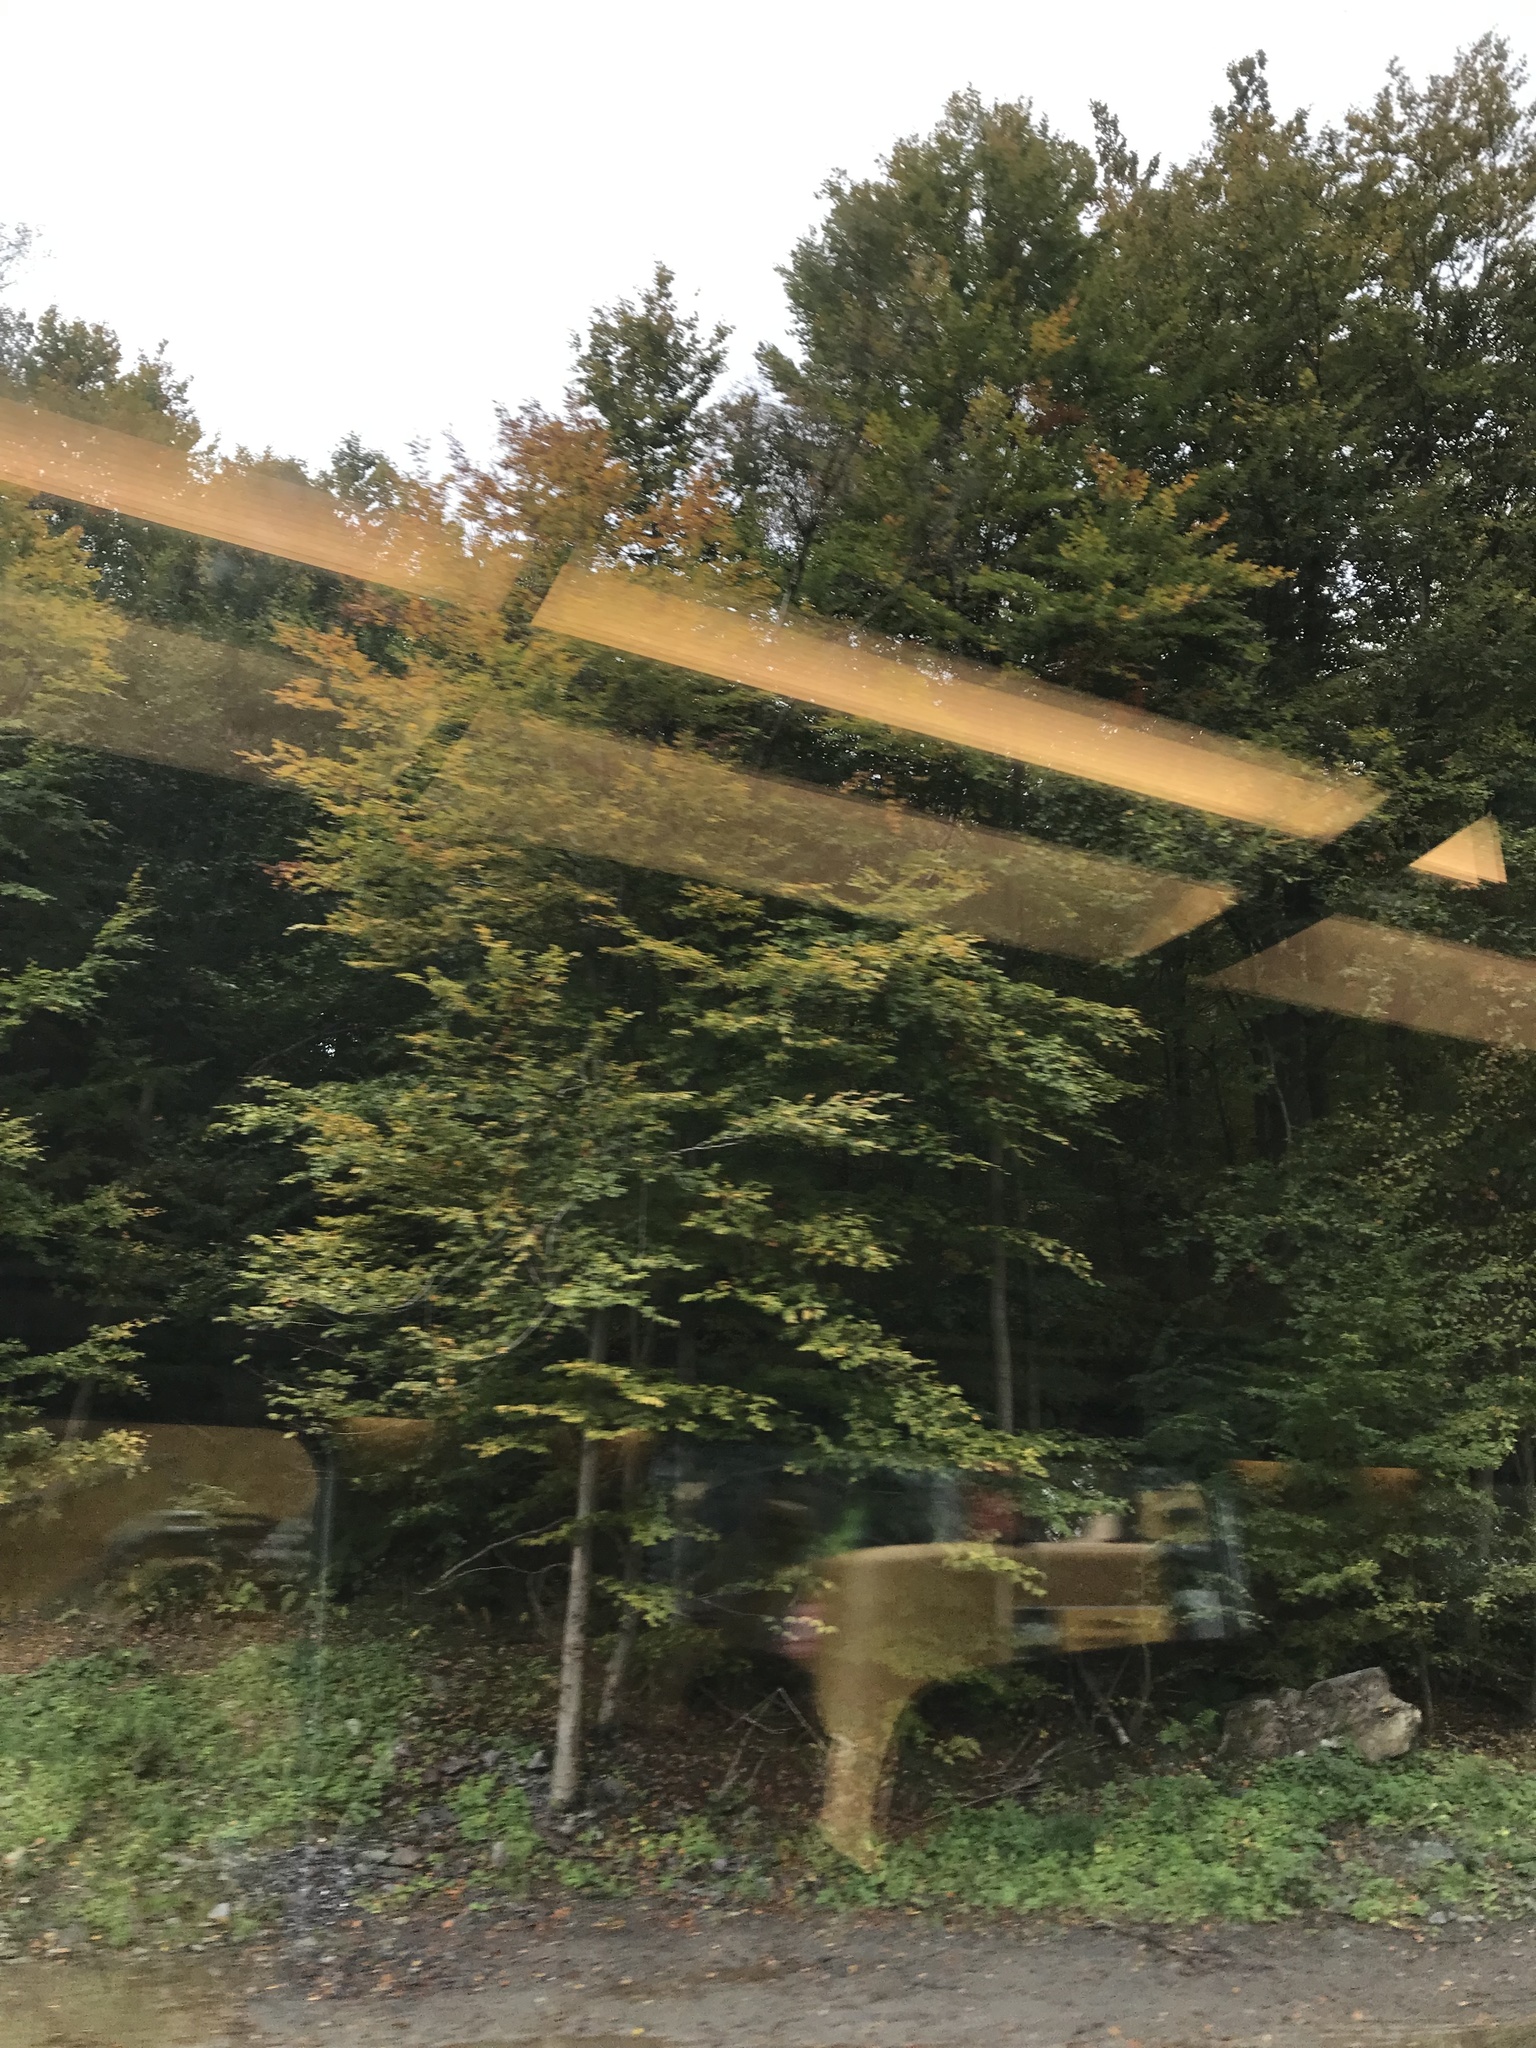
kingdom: Plantae
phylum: Tracheophyta
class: Magnoliopsida
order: Fagales
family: Fagaceae
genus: Fagus
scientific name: Fagus sylvatica
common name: Beech
